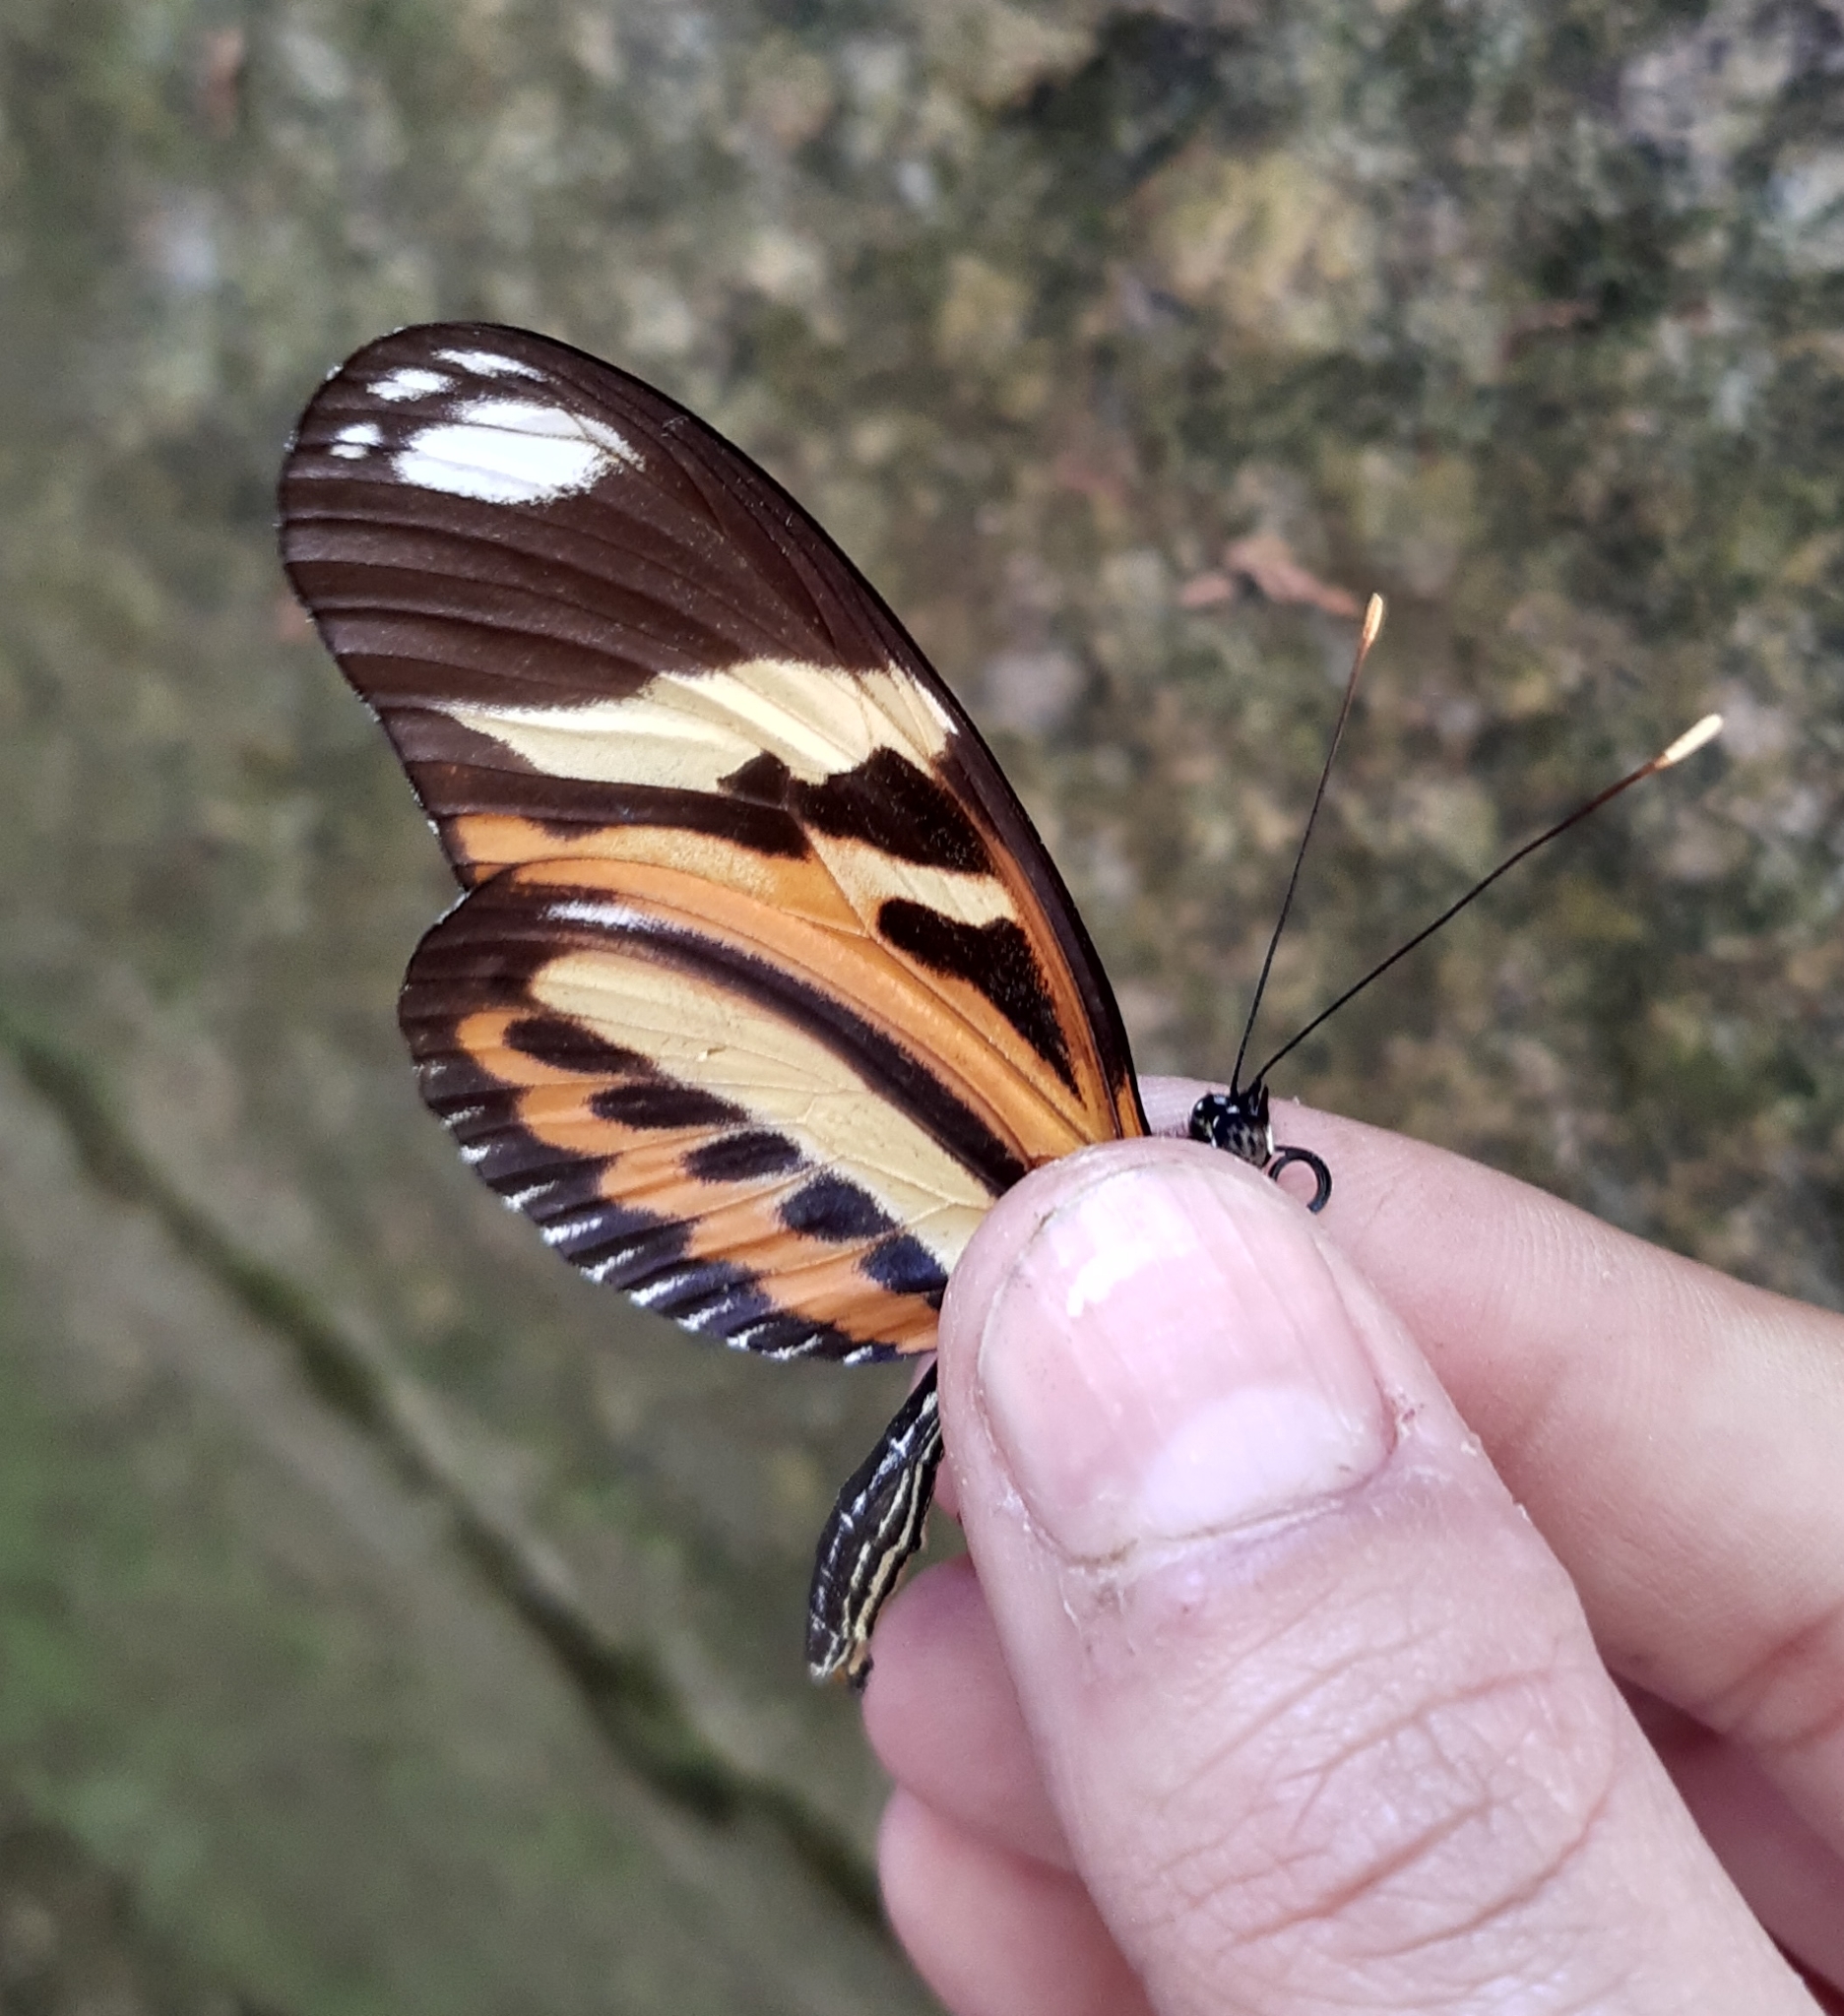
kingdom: Animalia
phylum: Arthropoda
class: Insecta
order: Lepidoptera
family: Nymphalidae
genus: Heliconius
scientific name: Heliconius ethilla
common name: Ethilia longwing
